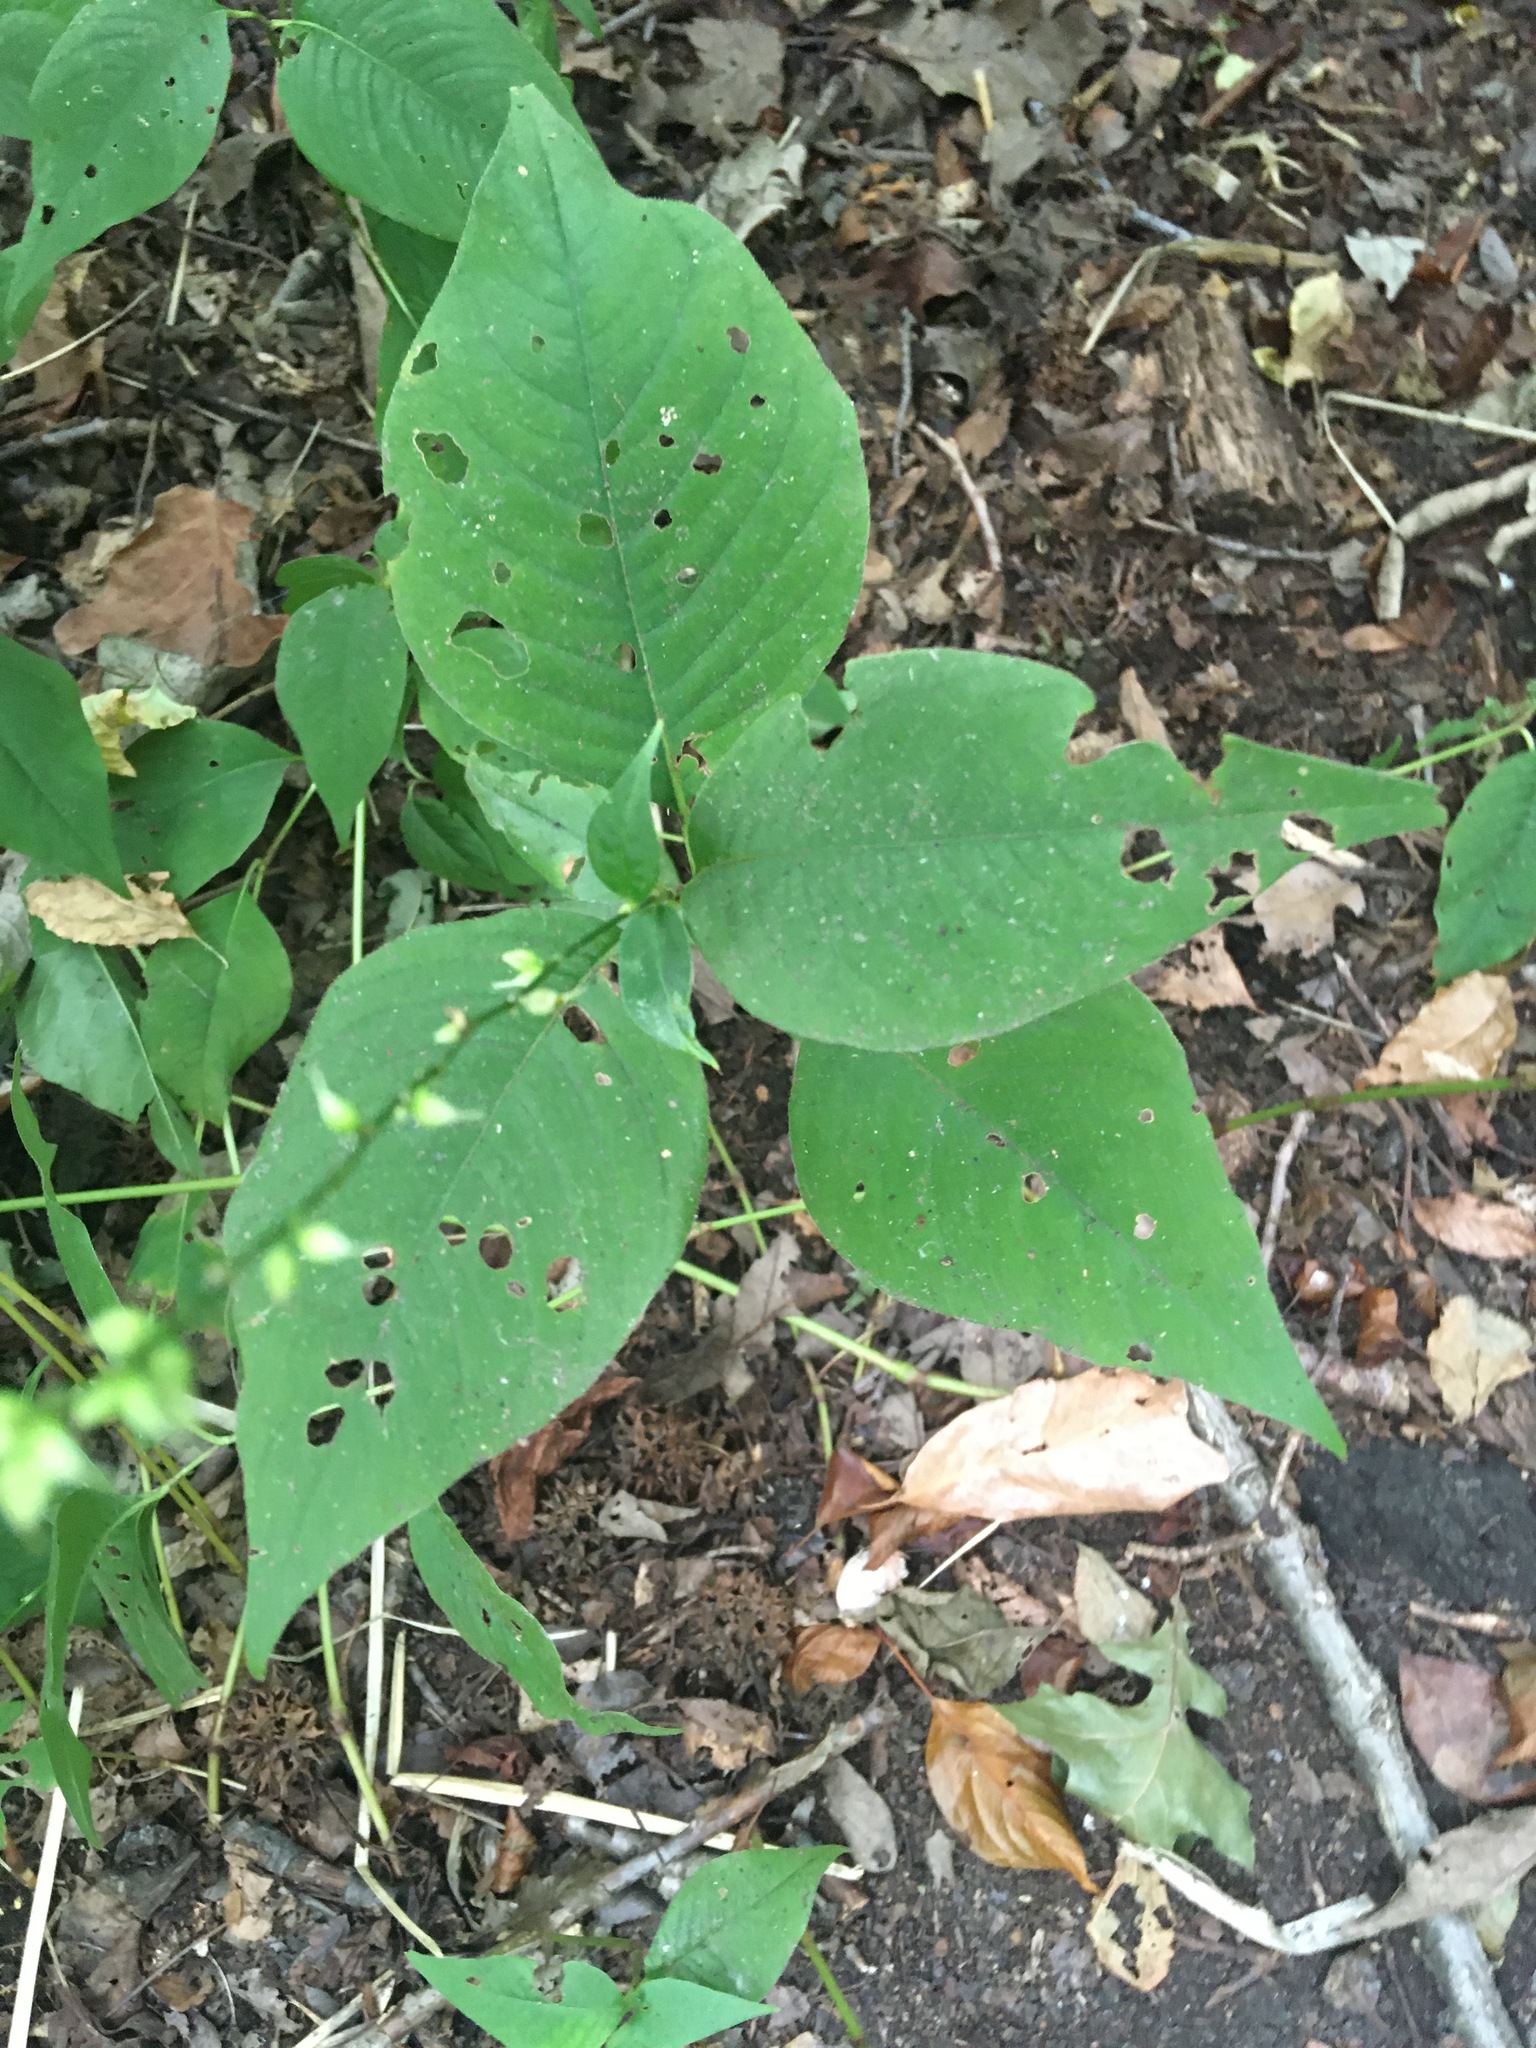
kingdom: Plantae
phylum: Tracheophyta
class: Magnoliopsida
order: Caryophyllales
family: Polygonaceae
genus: Persicaria
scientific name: Persicaria virginiana
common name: Jumpseed
